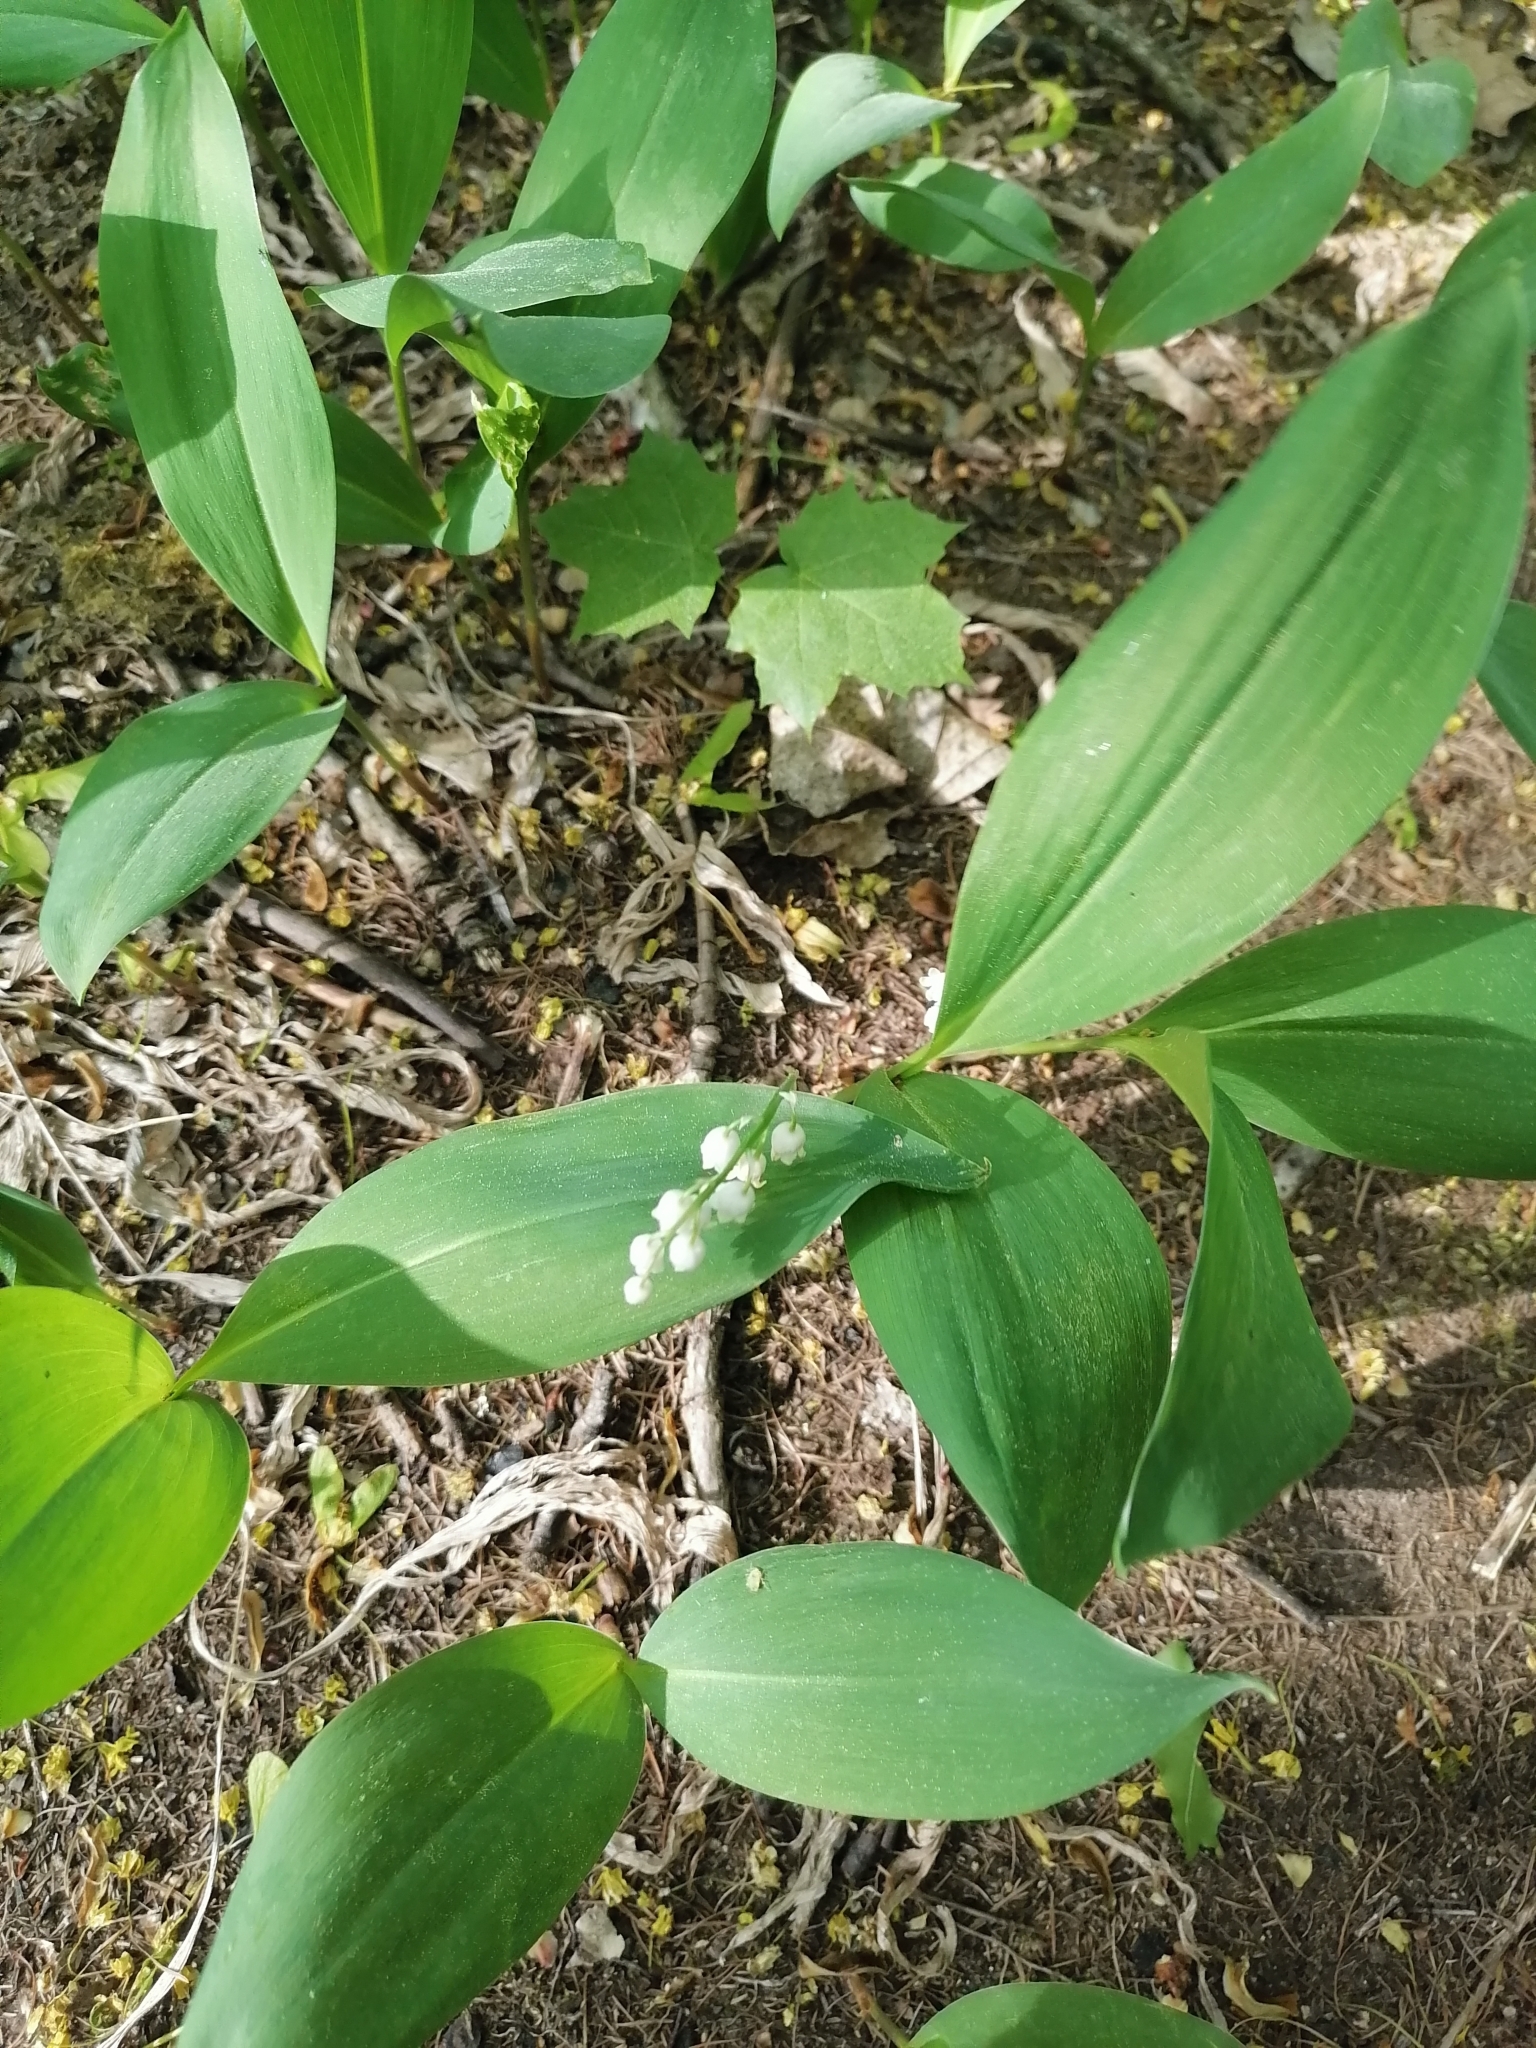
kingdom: Plantae
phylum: Tracheophyta
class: Liliopsida
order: Asparagales
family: Asparagaceae
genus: Convallaria
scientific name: Convallaria majalis
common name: Lily-of-the-valley
